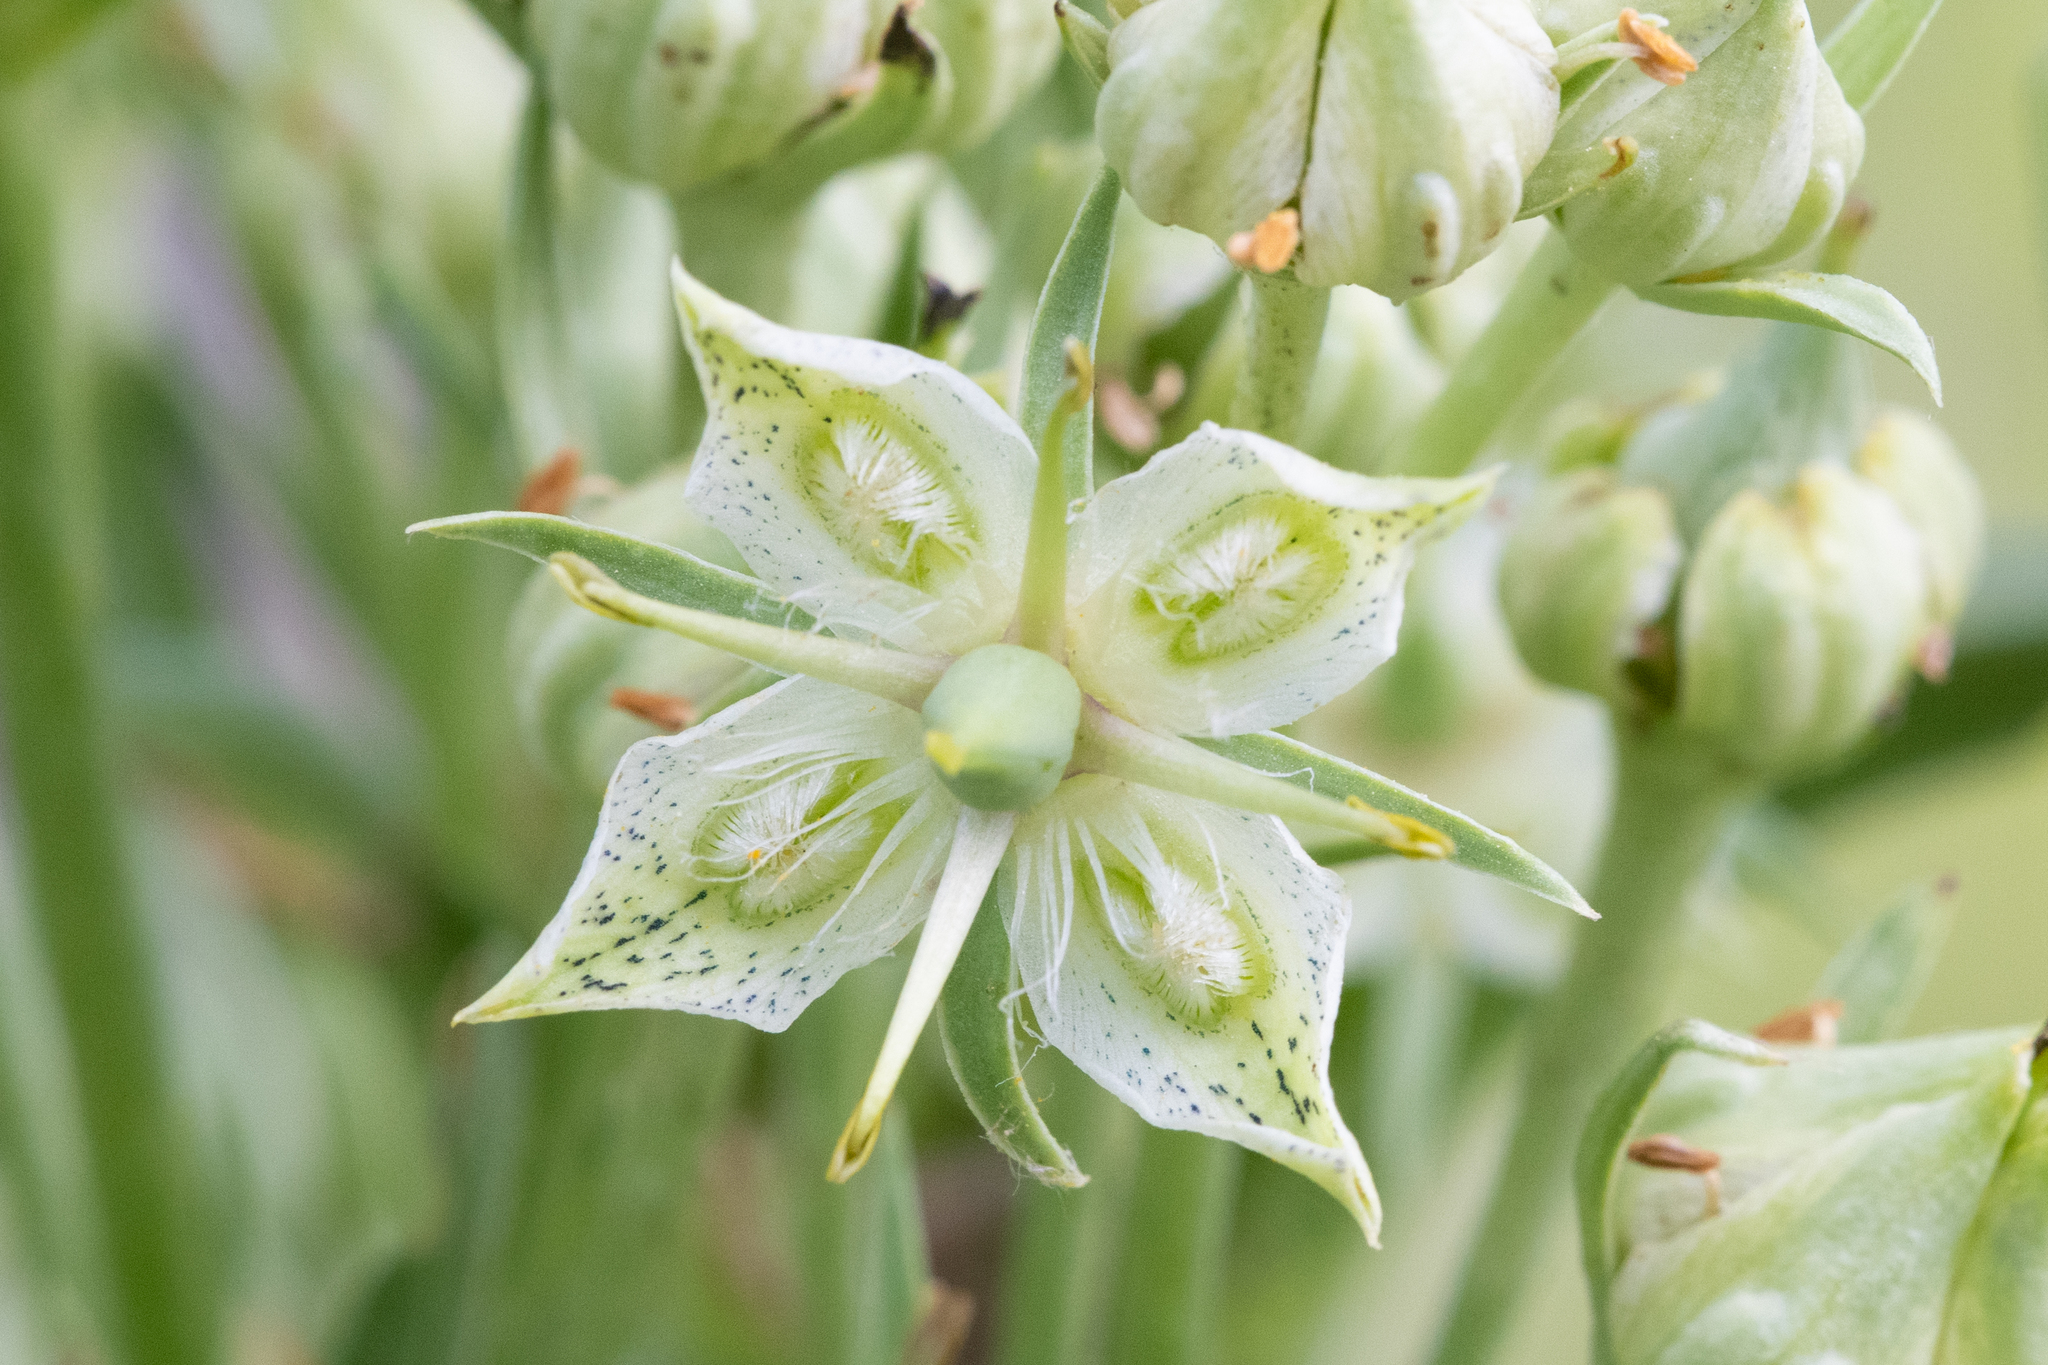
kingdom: Plantae
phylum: Tracheophyta
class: Magnoliopsida
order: Gentianales
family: Gentianaceae
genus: Frasera
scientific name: Frasera speciosa
